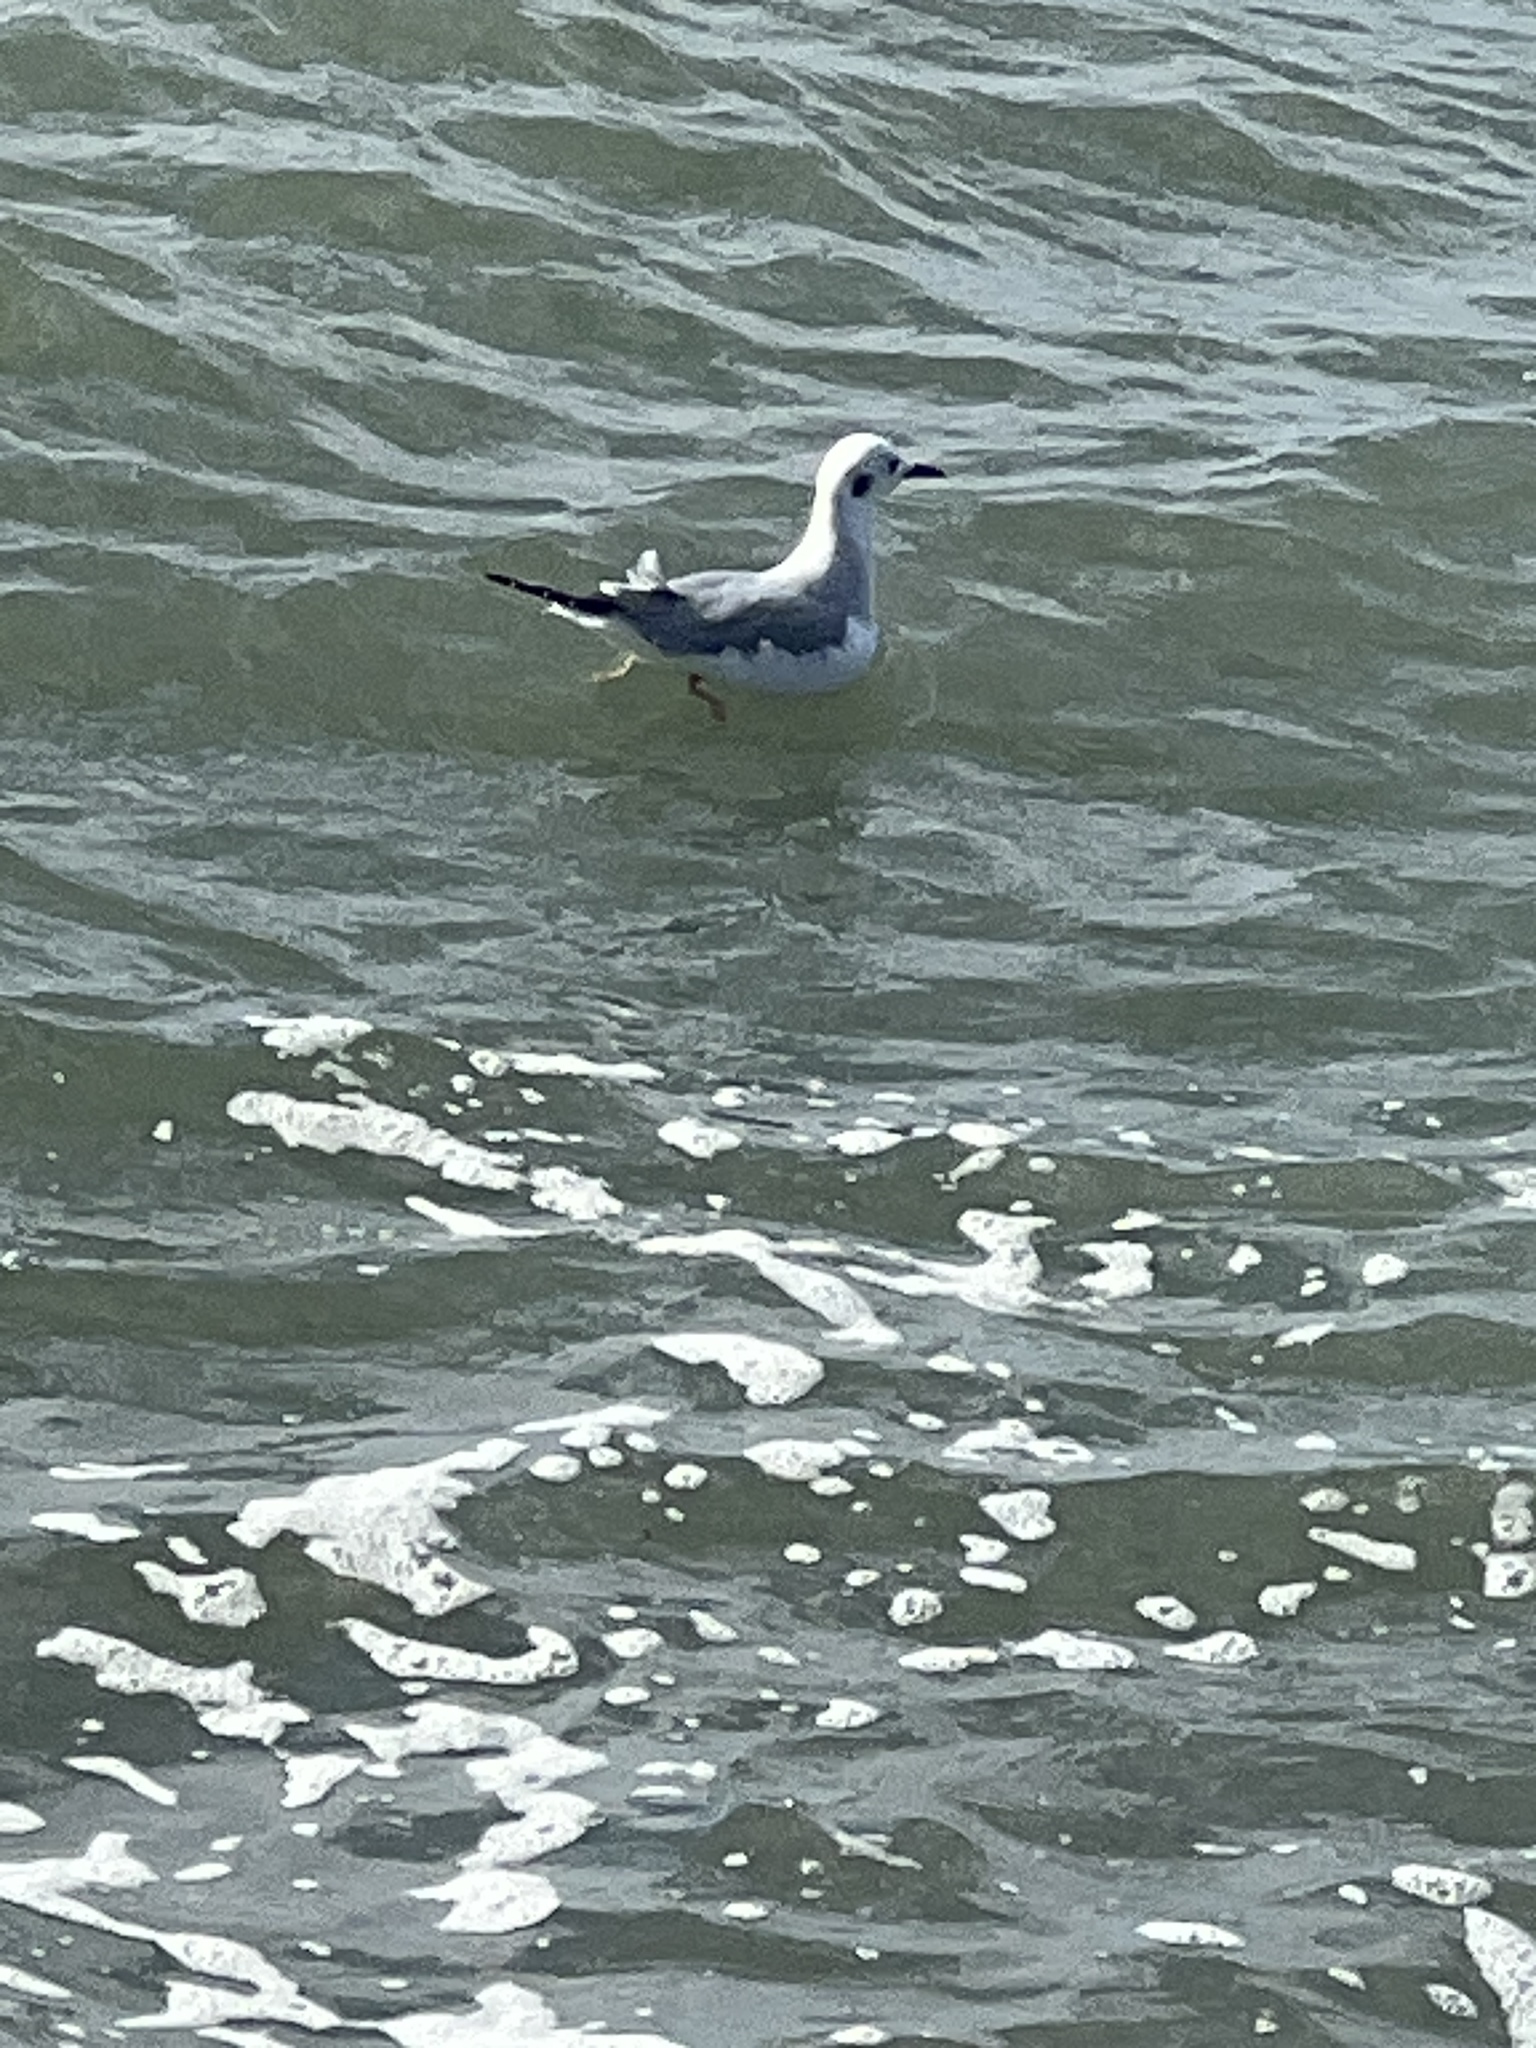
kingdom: Animalia
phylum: Chordata
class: Aves
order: Charadriiformes
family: Laridae
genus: Chroicocephalus
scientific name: Chroicocephalus philadelphia
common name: Bonaparte's gull
